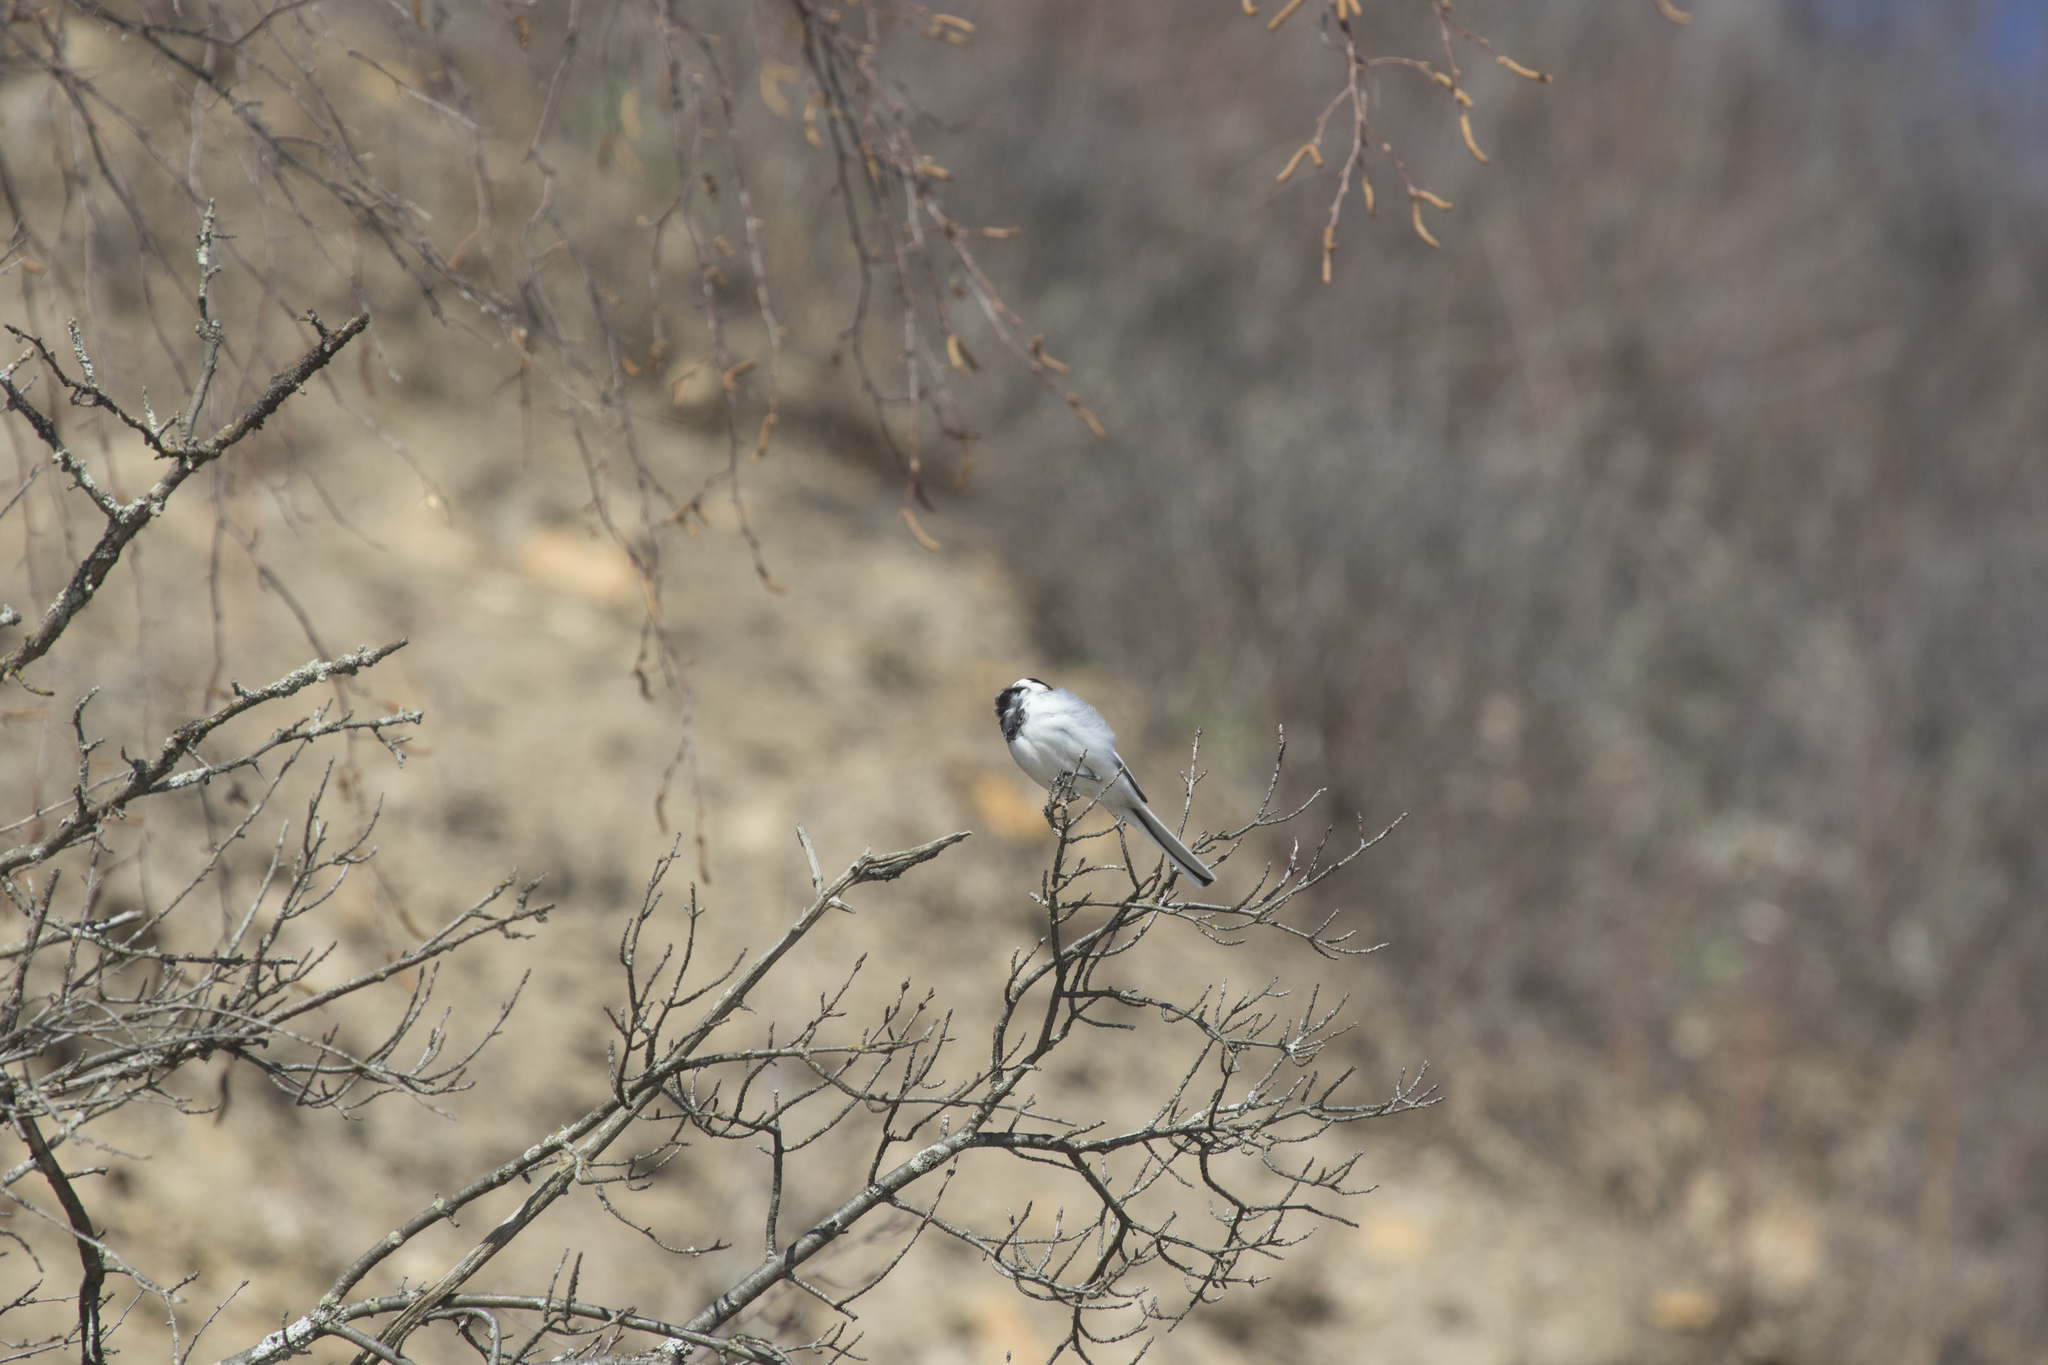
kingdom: Animalia
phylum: Chordata
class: Aves
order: Passeriformes
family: Motacillidae
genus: Motacilla
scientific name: Motacilla alba
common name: White wagtail
